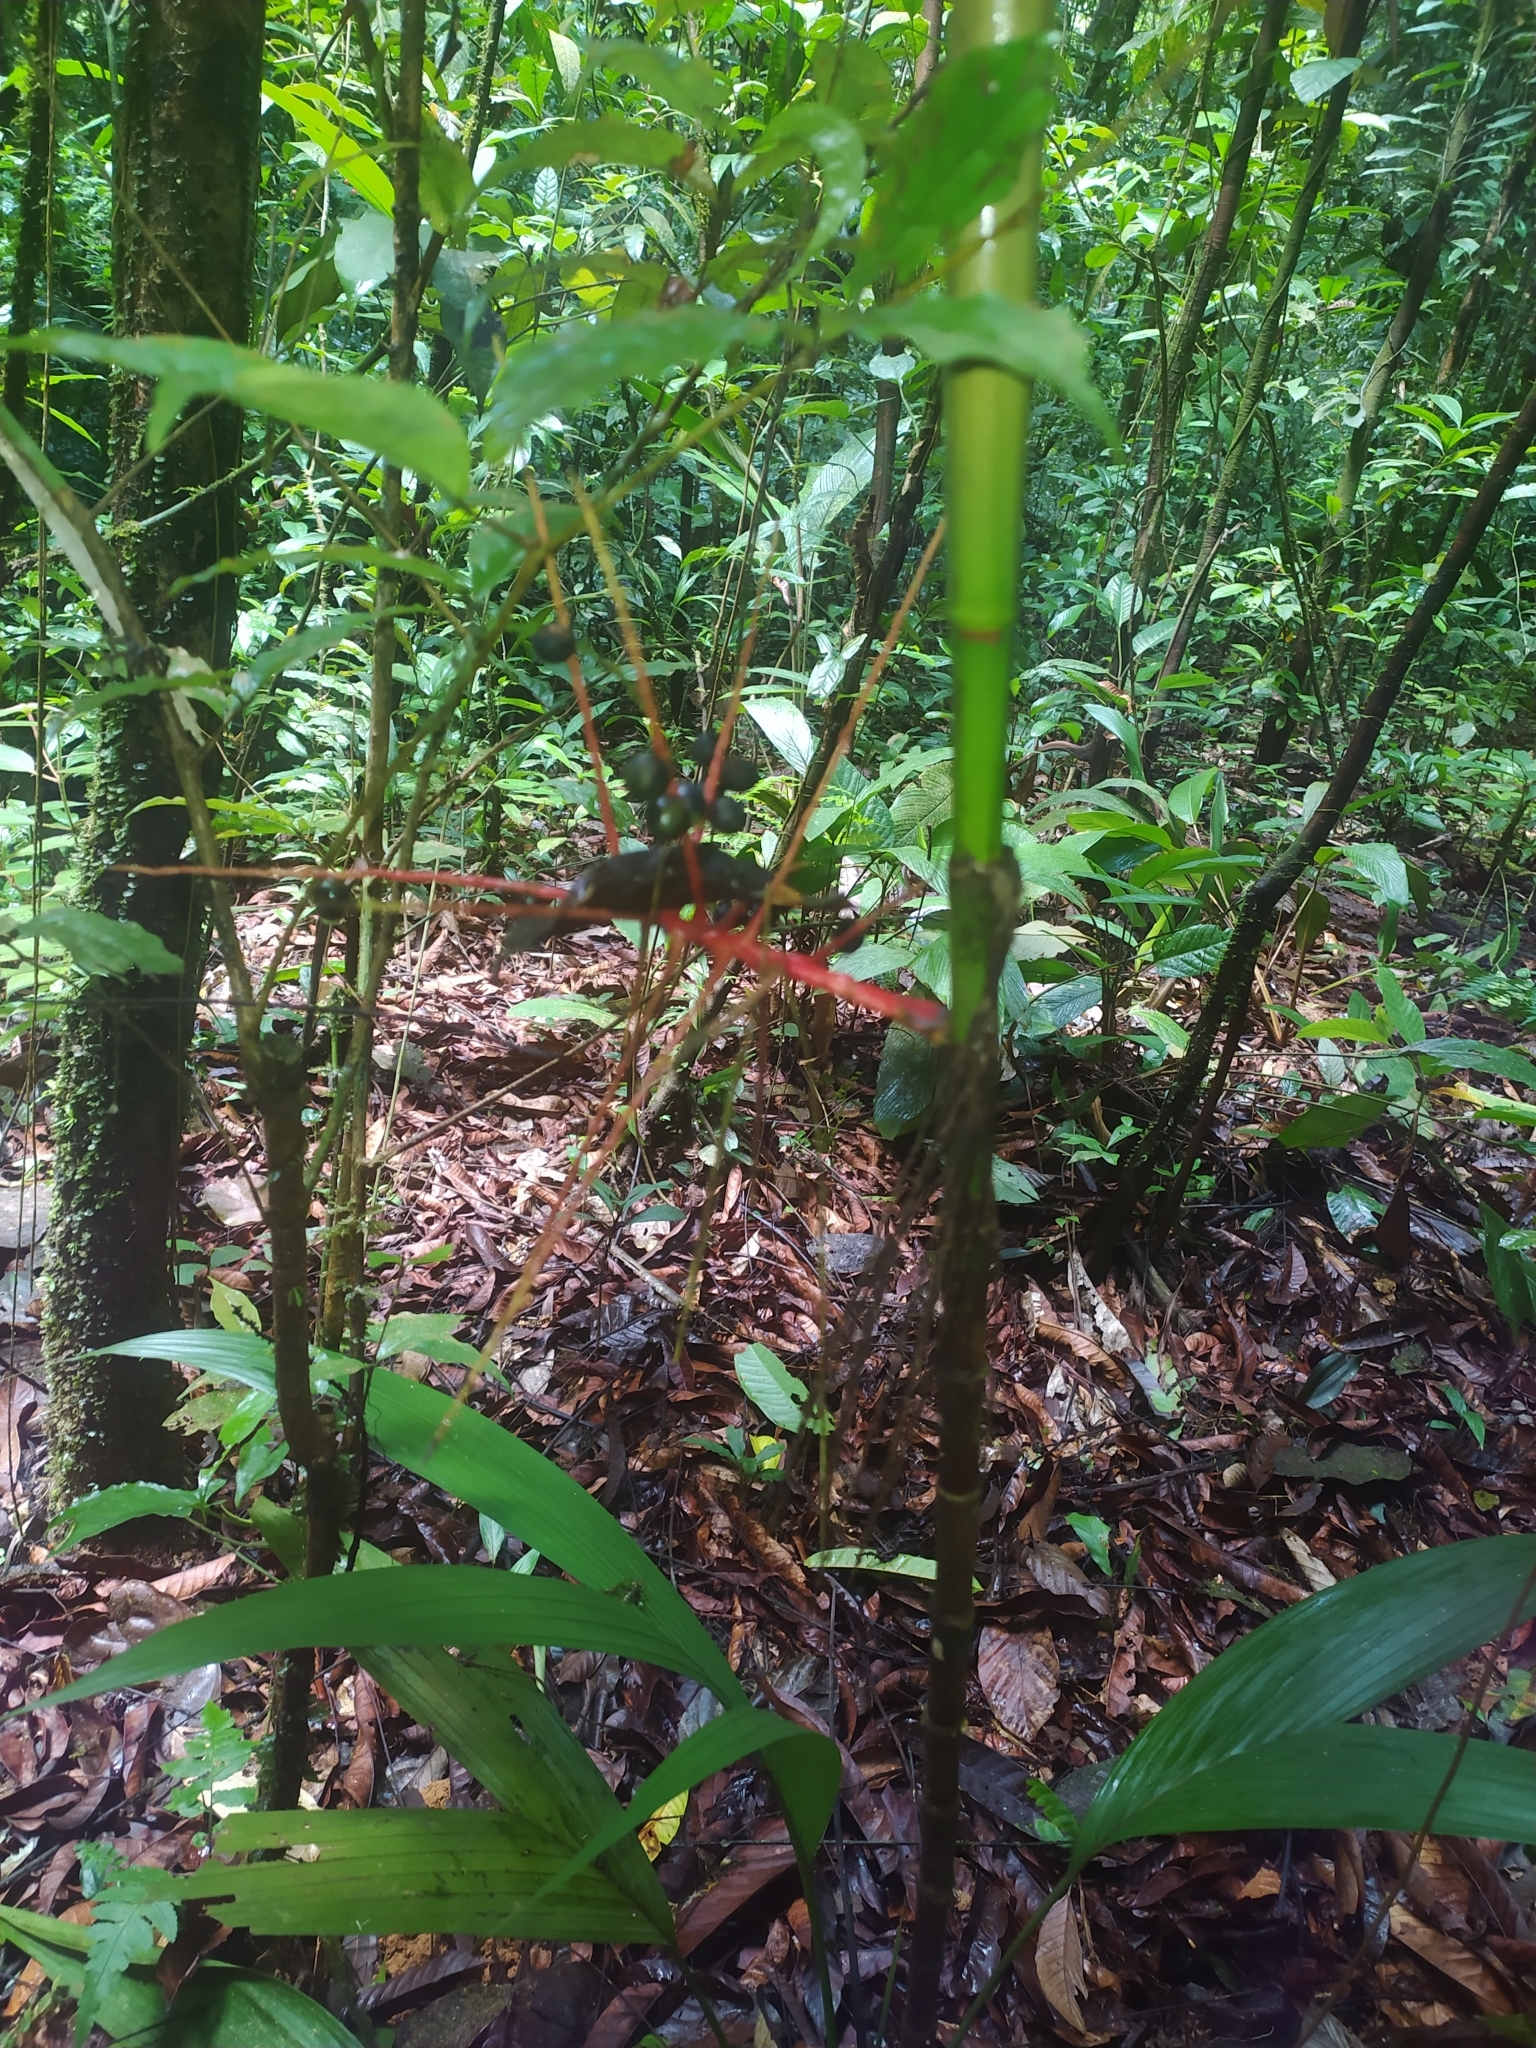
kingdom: Plantae
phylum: Tracheophyta
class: Liliopsida
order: Arecales
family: Arecaceae
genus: Hyospathe
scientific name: Hyospathe elegans
